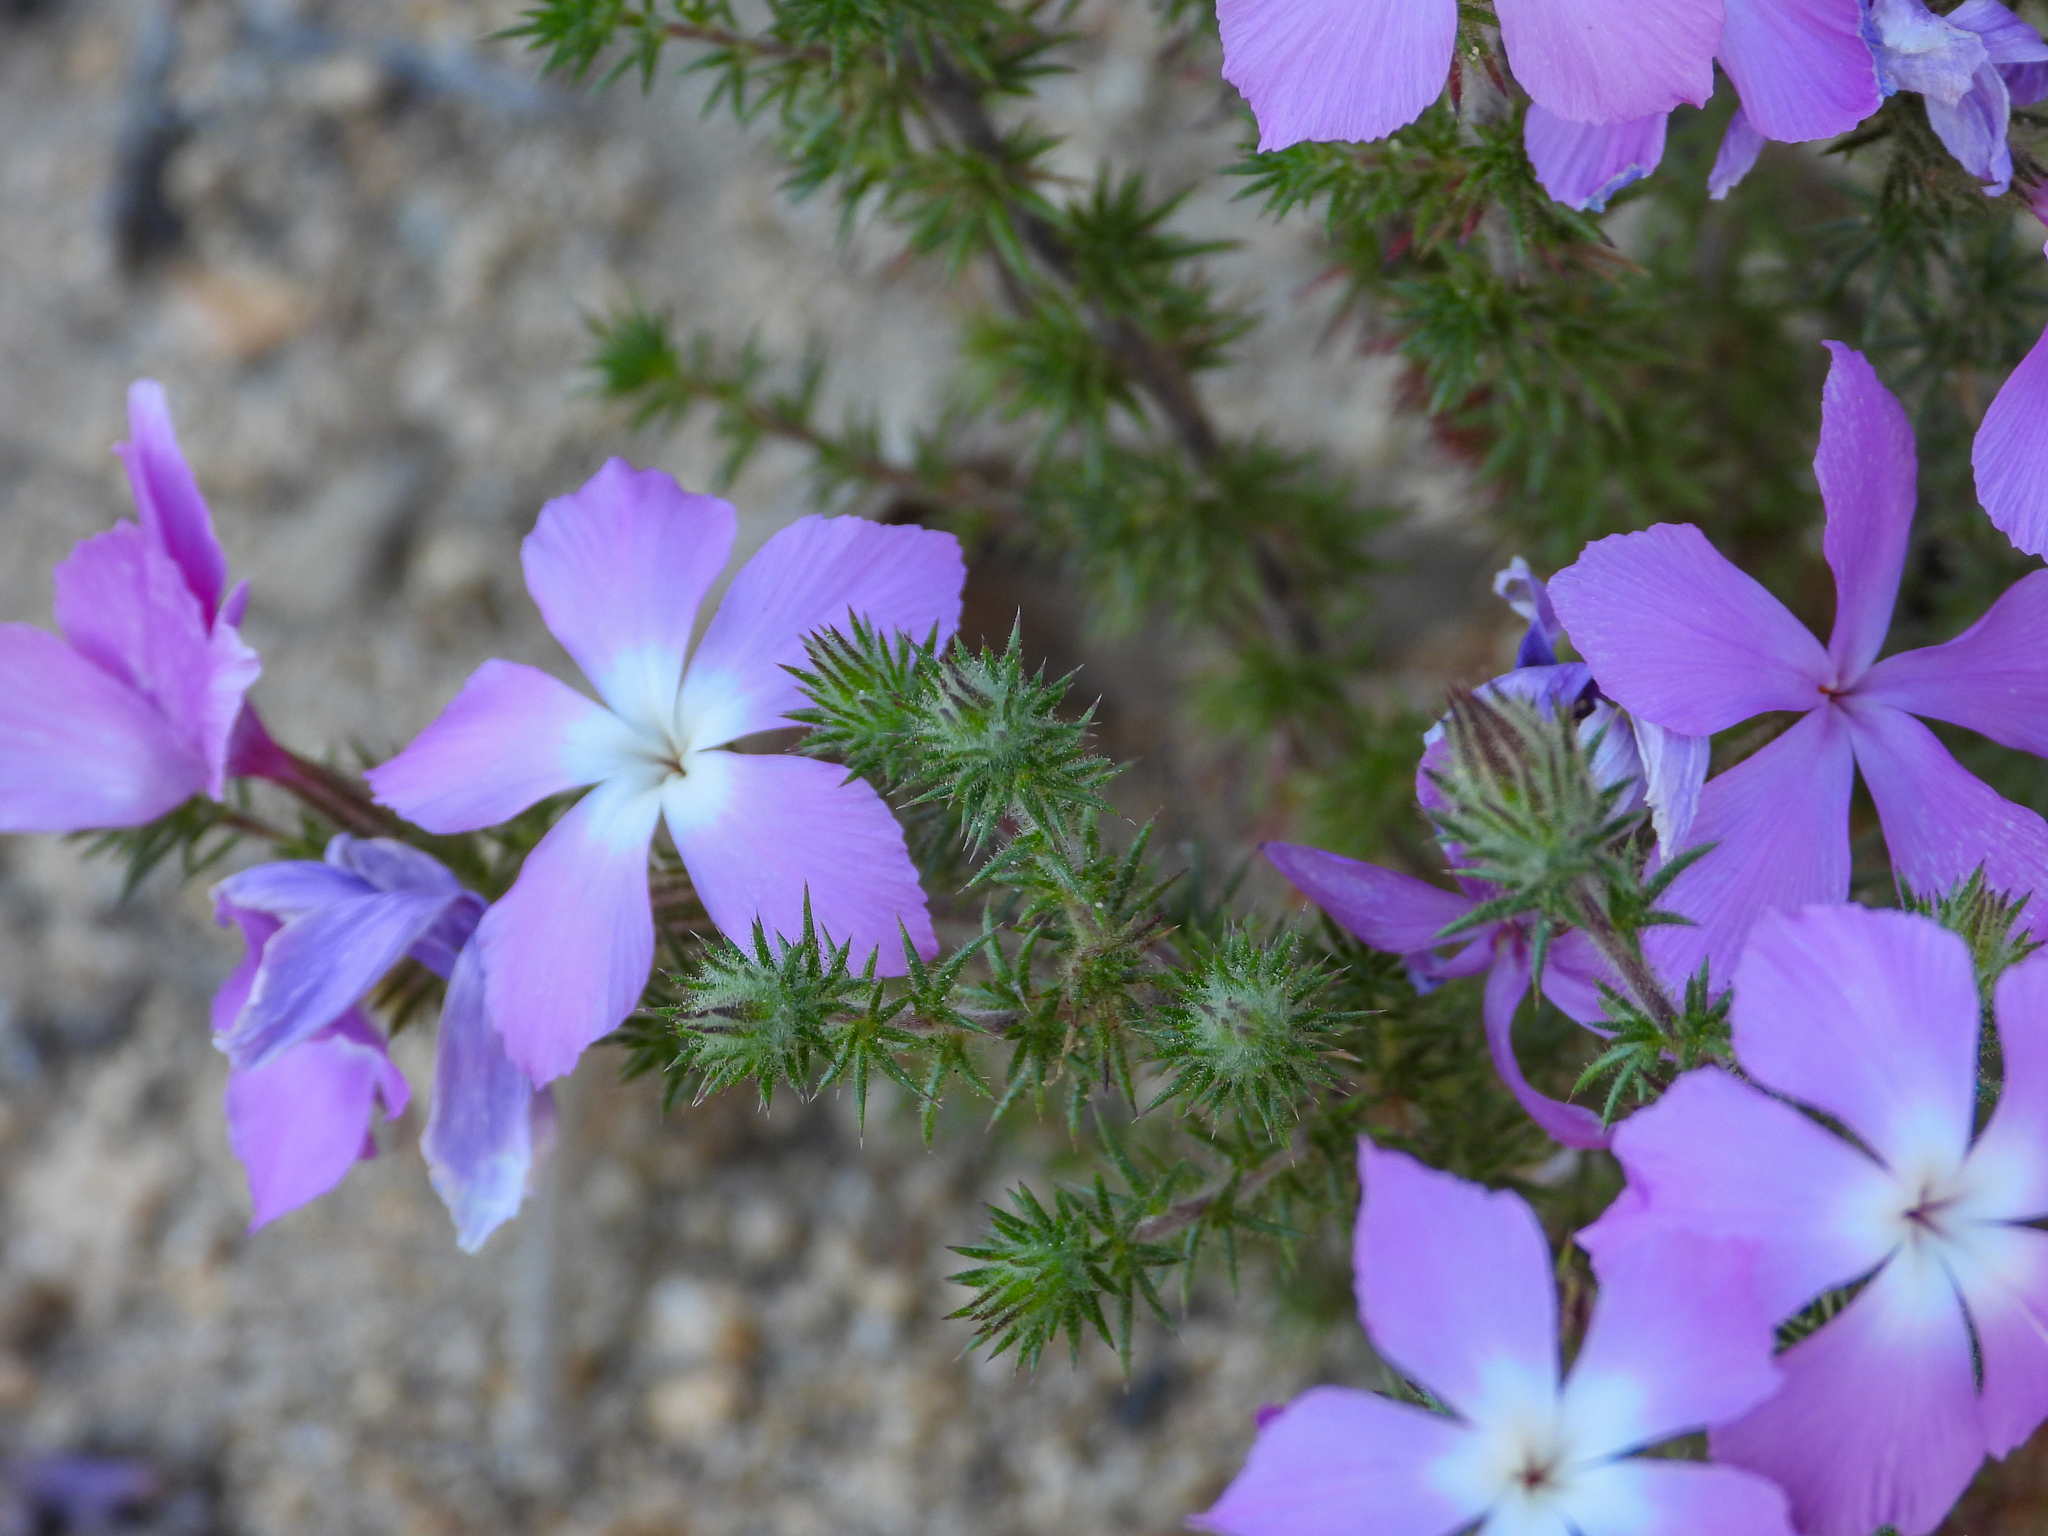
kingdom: Plantae
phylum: Tracheophyta
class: Magnoliopsida
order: Ericales
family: Polemoniaceae
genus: Linanthus
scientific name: Linanthus californicus
